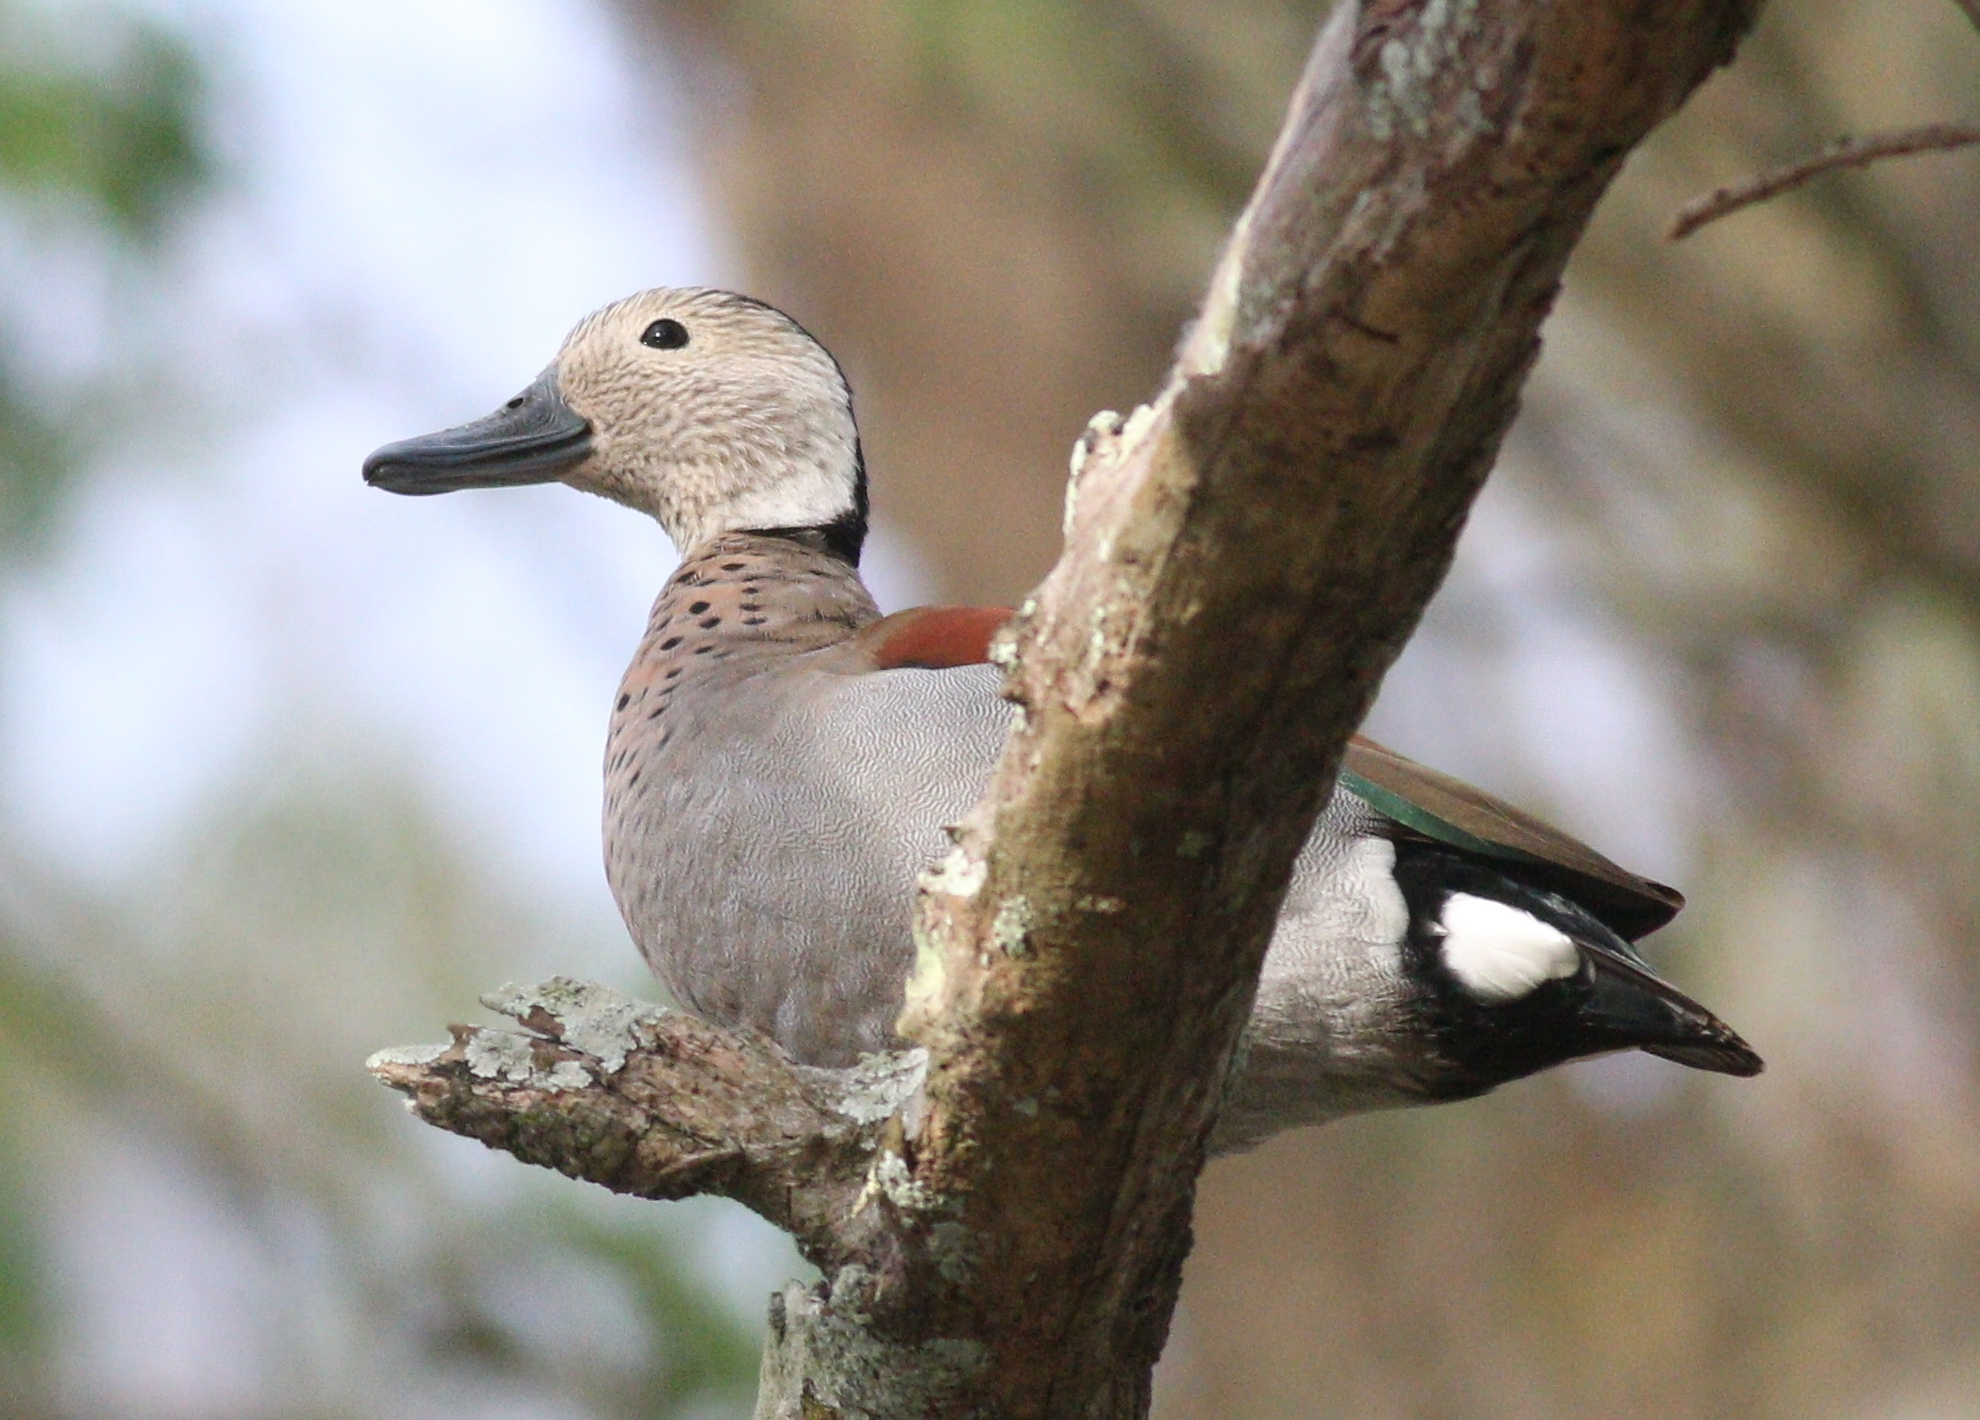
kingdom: Animalia
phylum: Chordata
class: Aves
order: Anseriformes
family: Anatidae
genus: Callonetta
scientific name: Callonetta leucophrys
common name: Ringed teal
